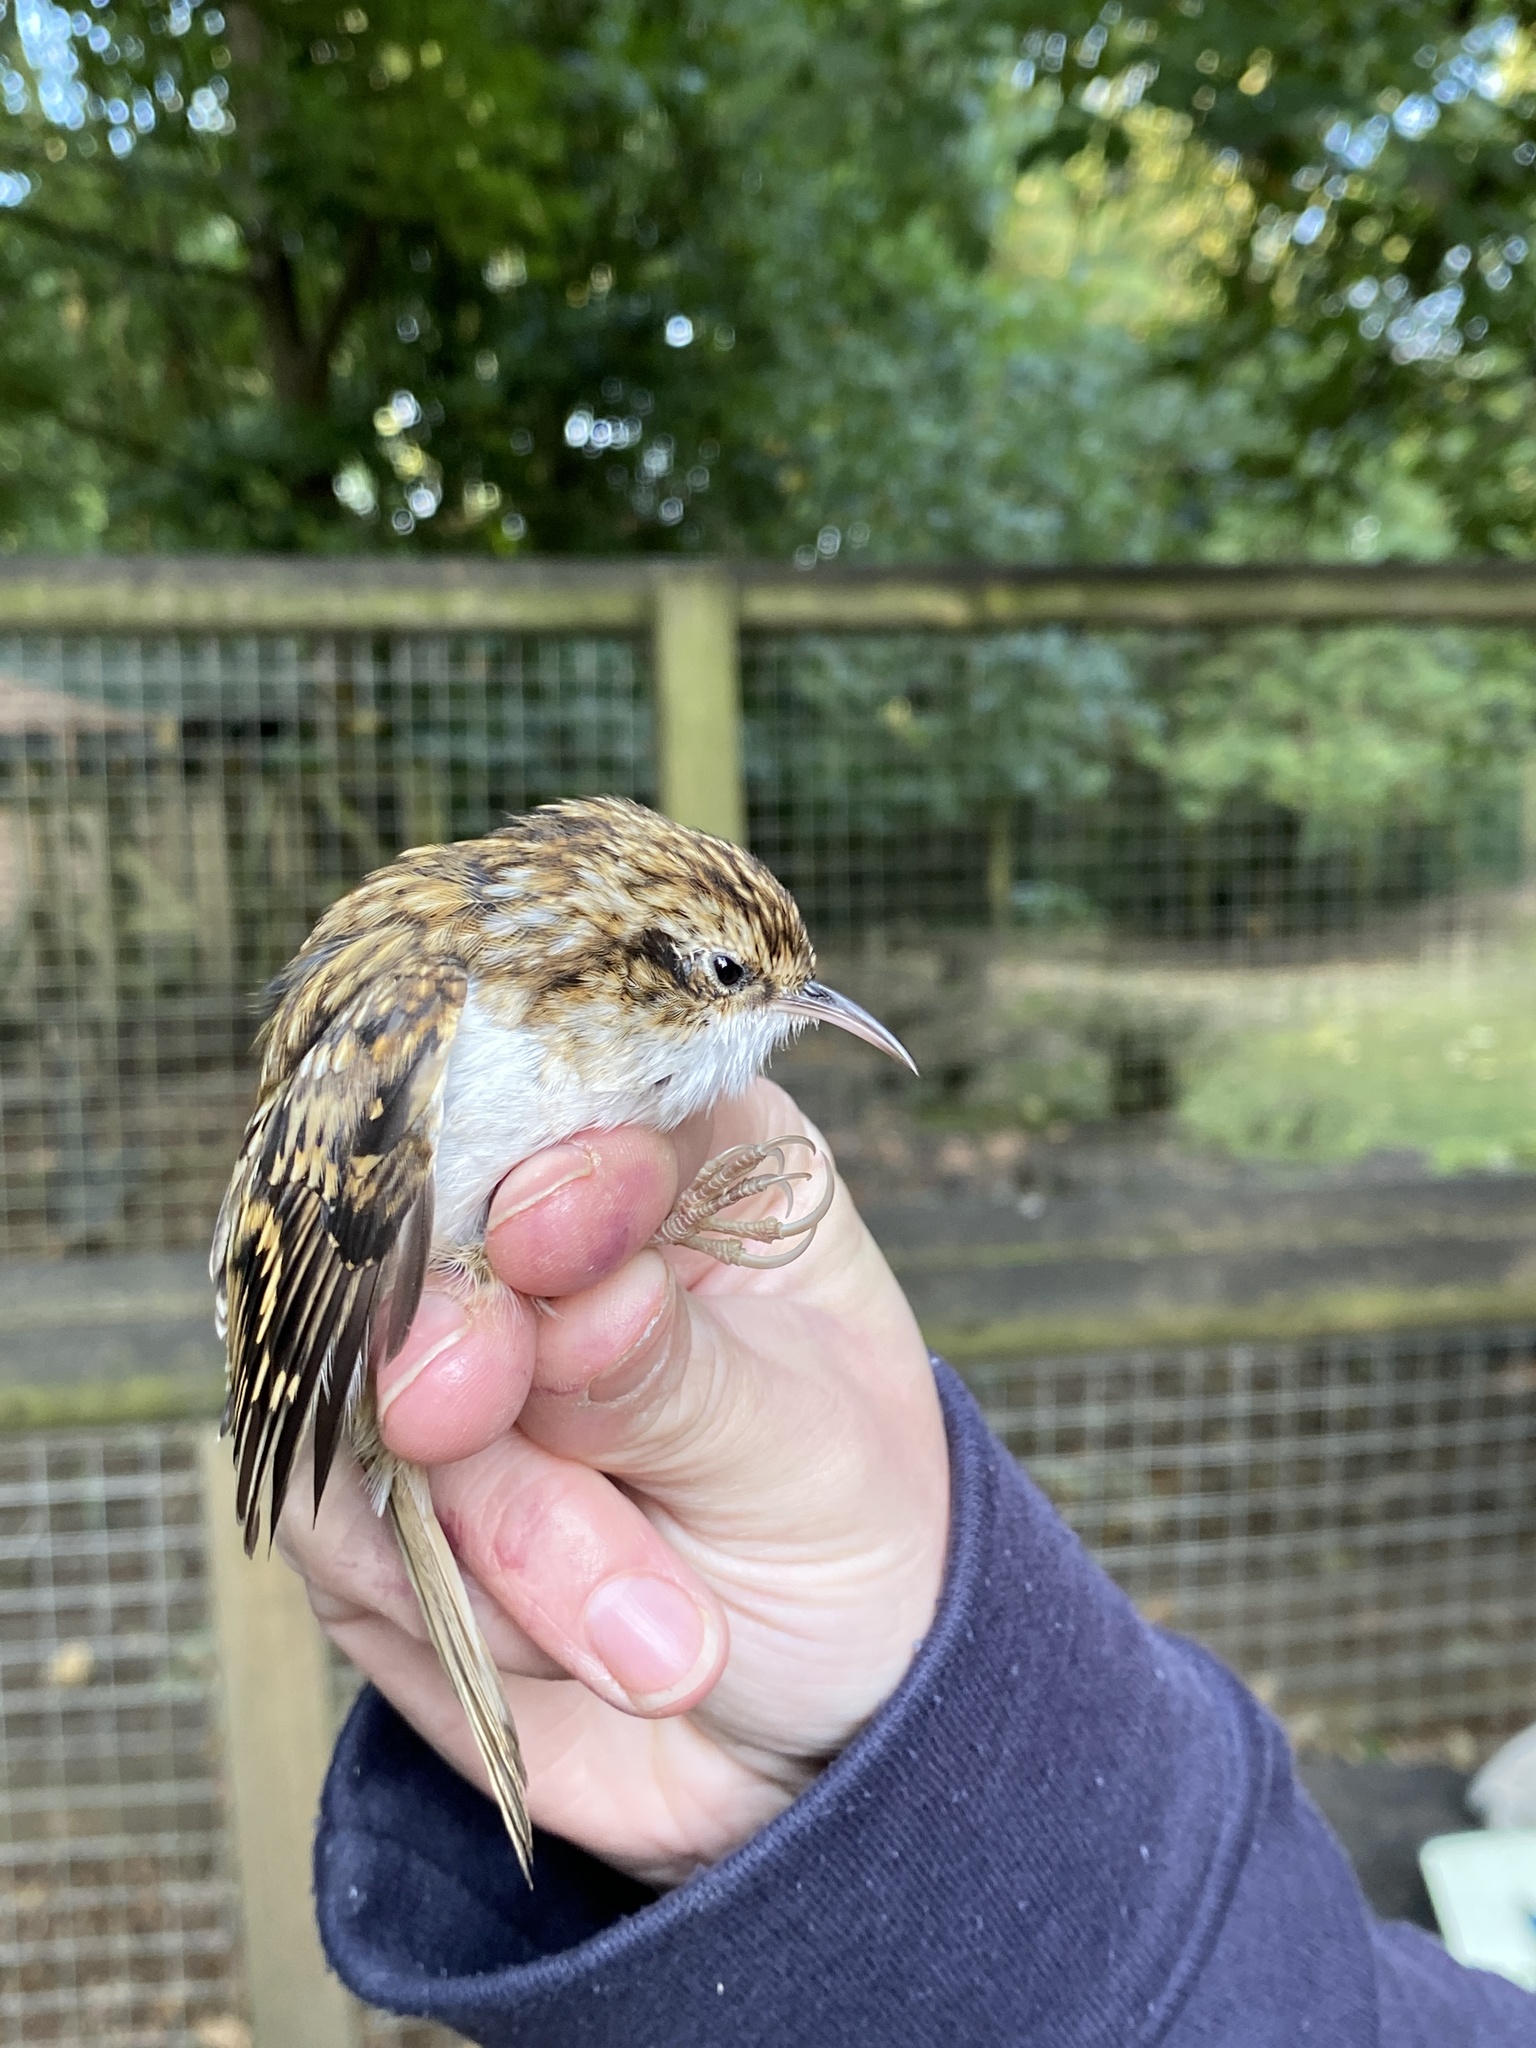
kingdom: Animalia
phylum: Chordata
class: Aves
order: Passeriformes
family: Certhiidae
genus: Certhia
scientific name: Certhia familiaris
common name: Eurasian treecreeper
